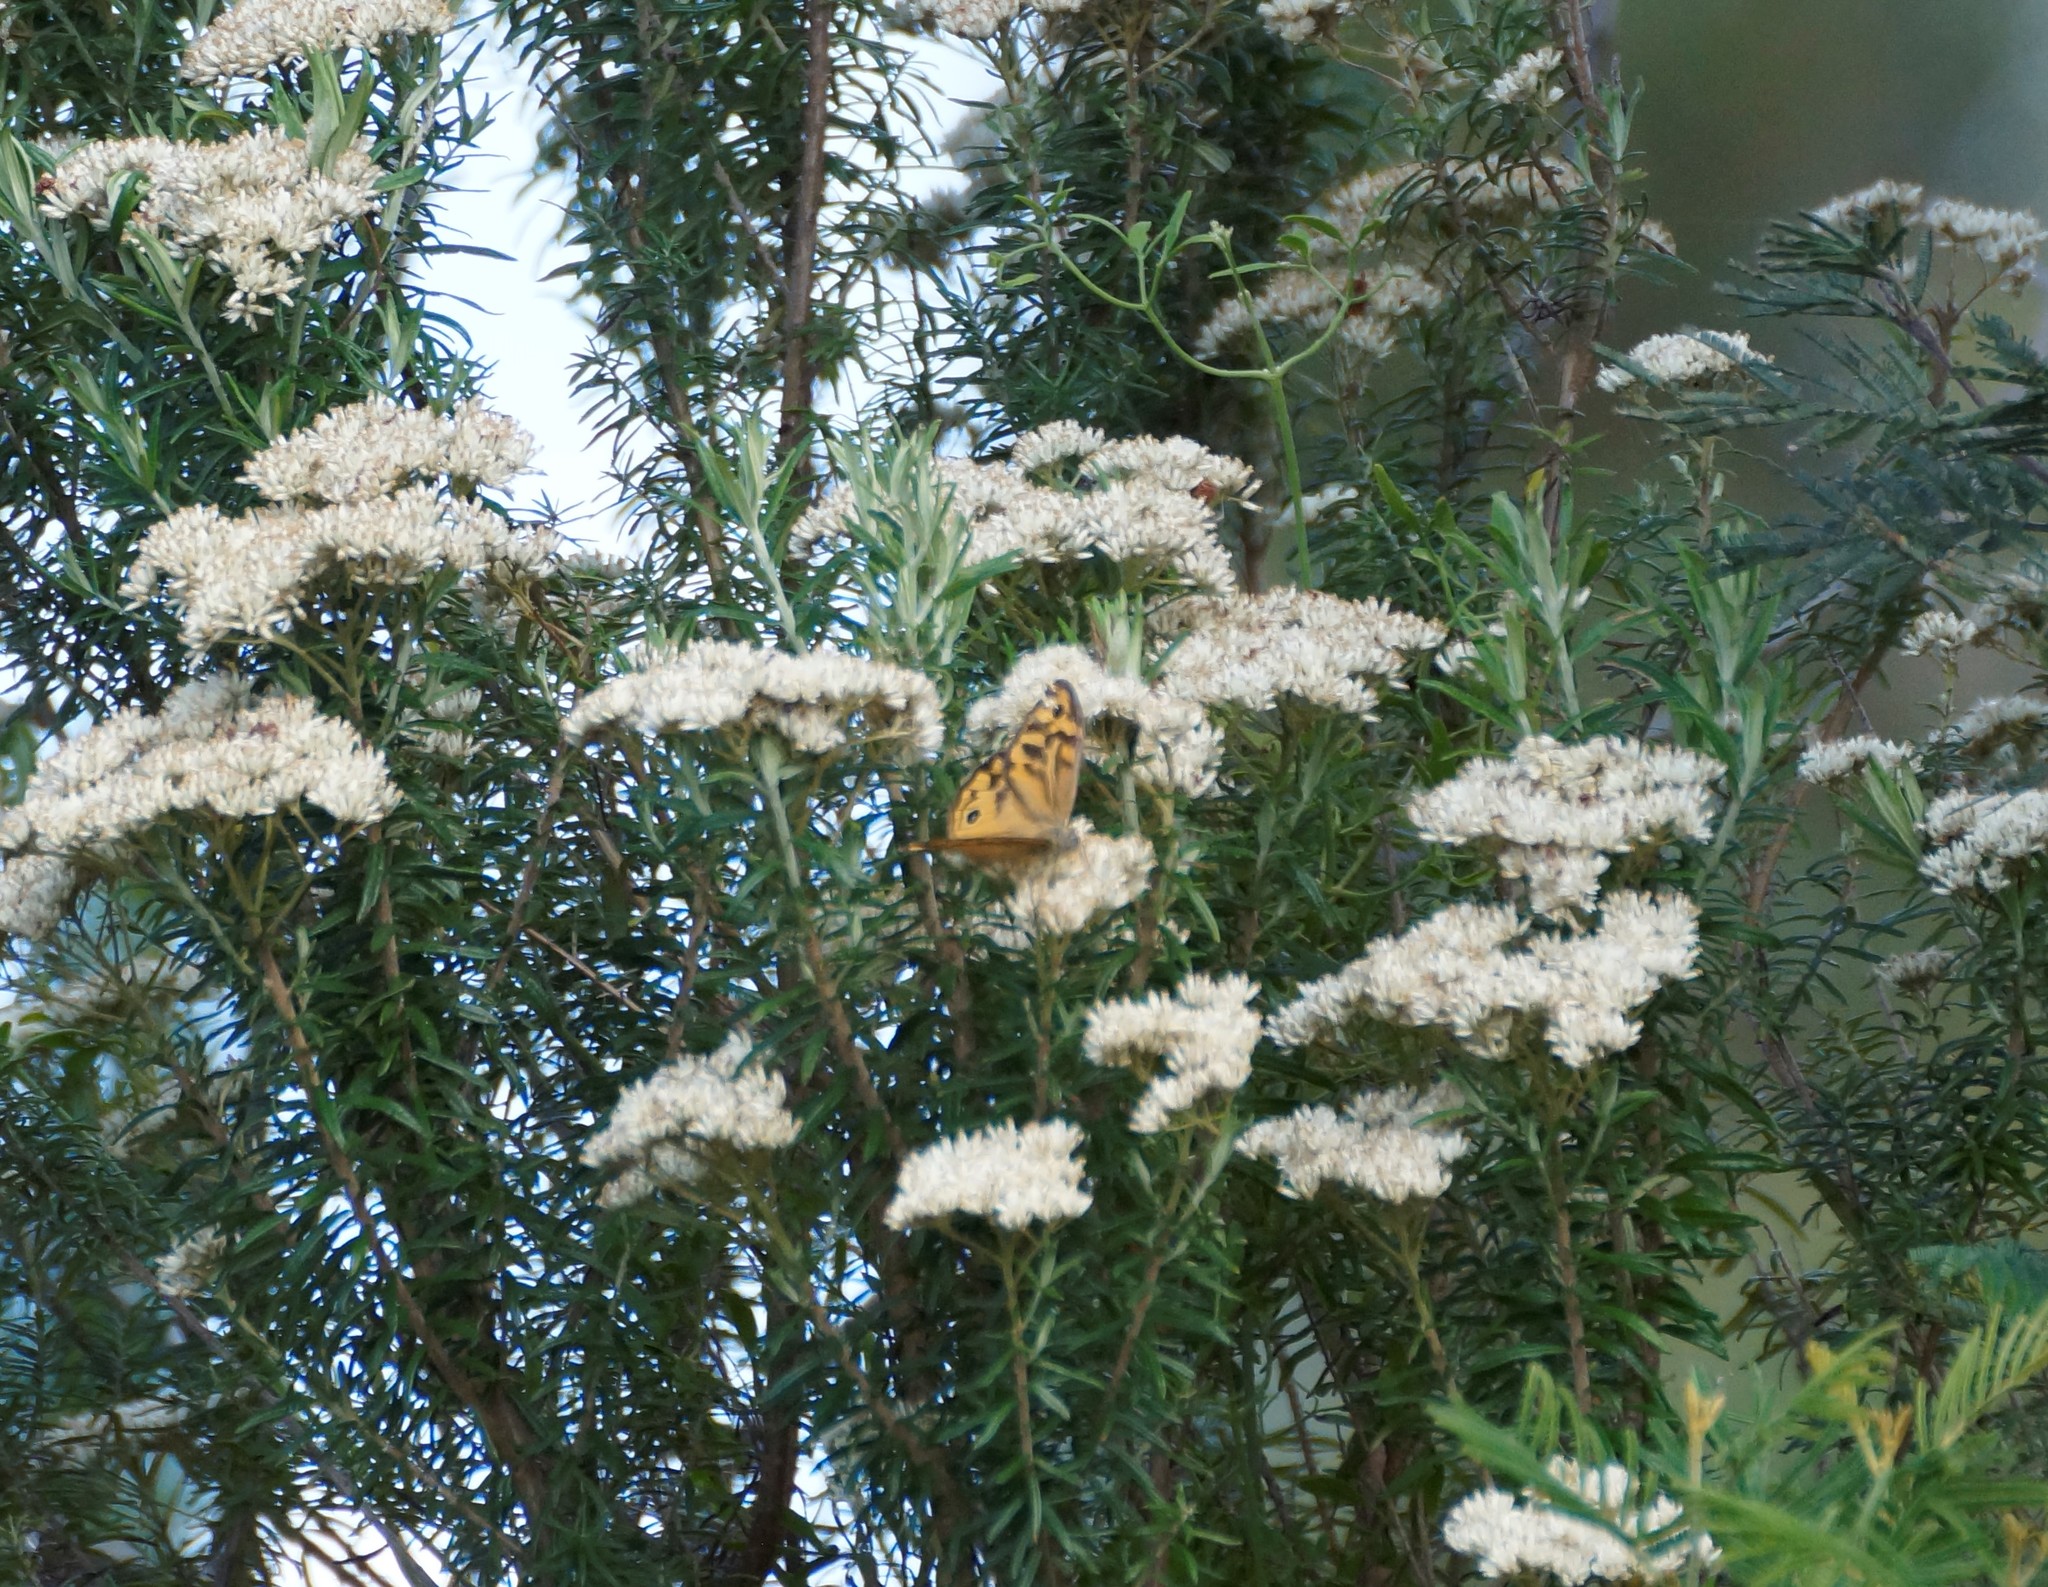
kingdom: Animalia
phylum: Arthropoda
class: Insecta
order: Lepidoptera
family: Nymphalidae
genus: Heteronympha
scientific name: Heteronympha merope
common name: Common brown
